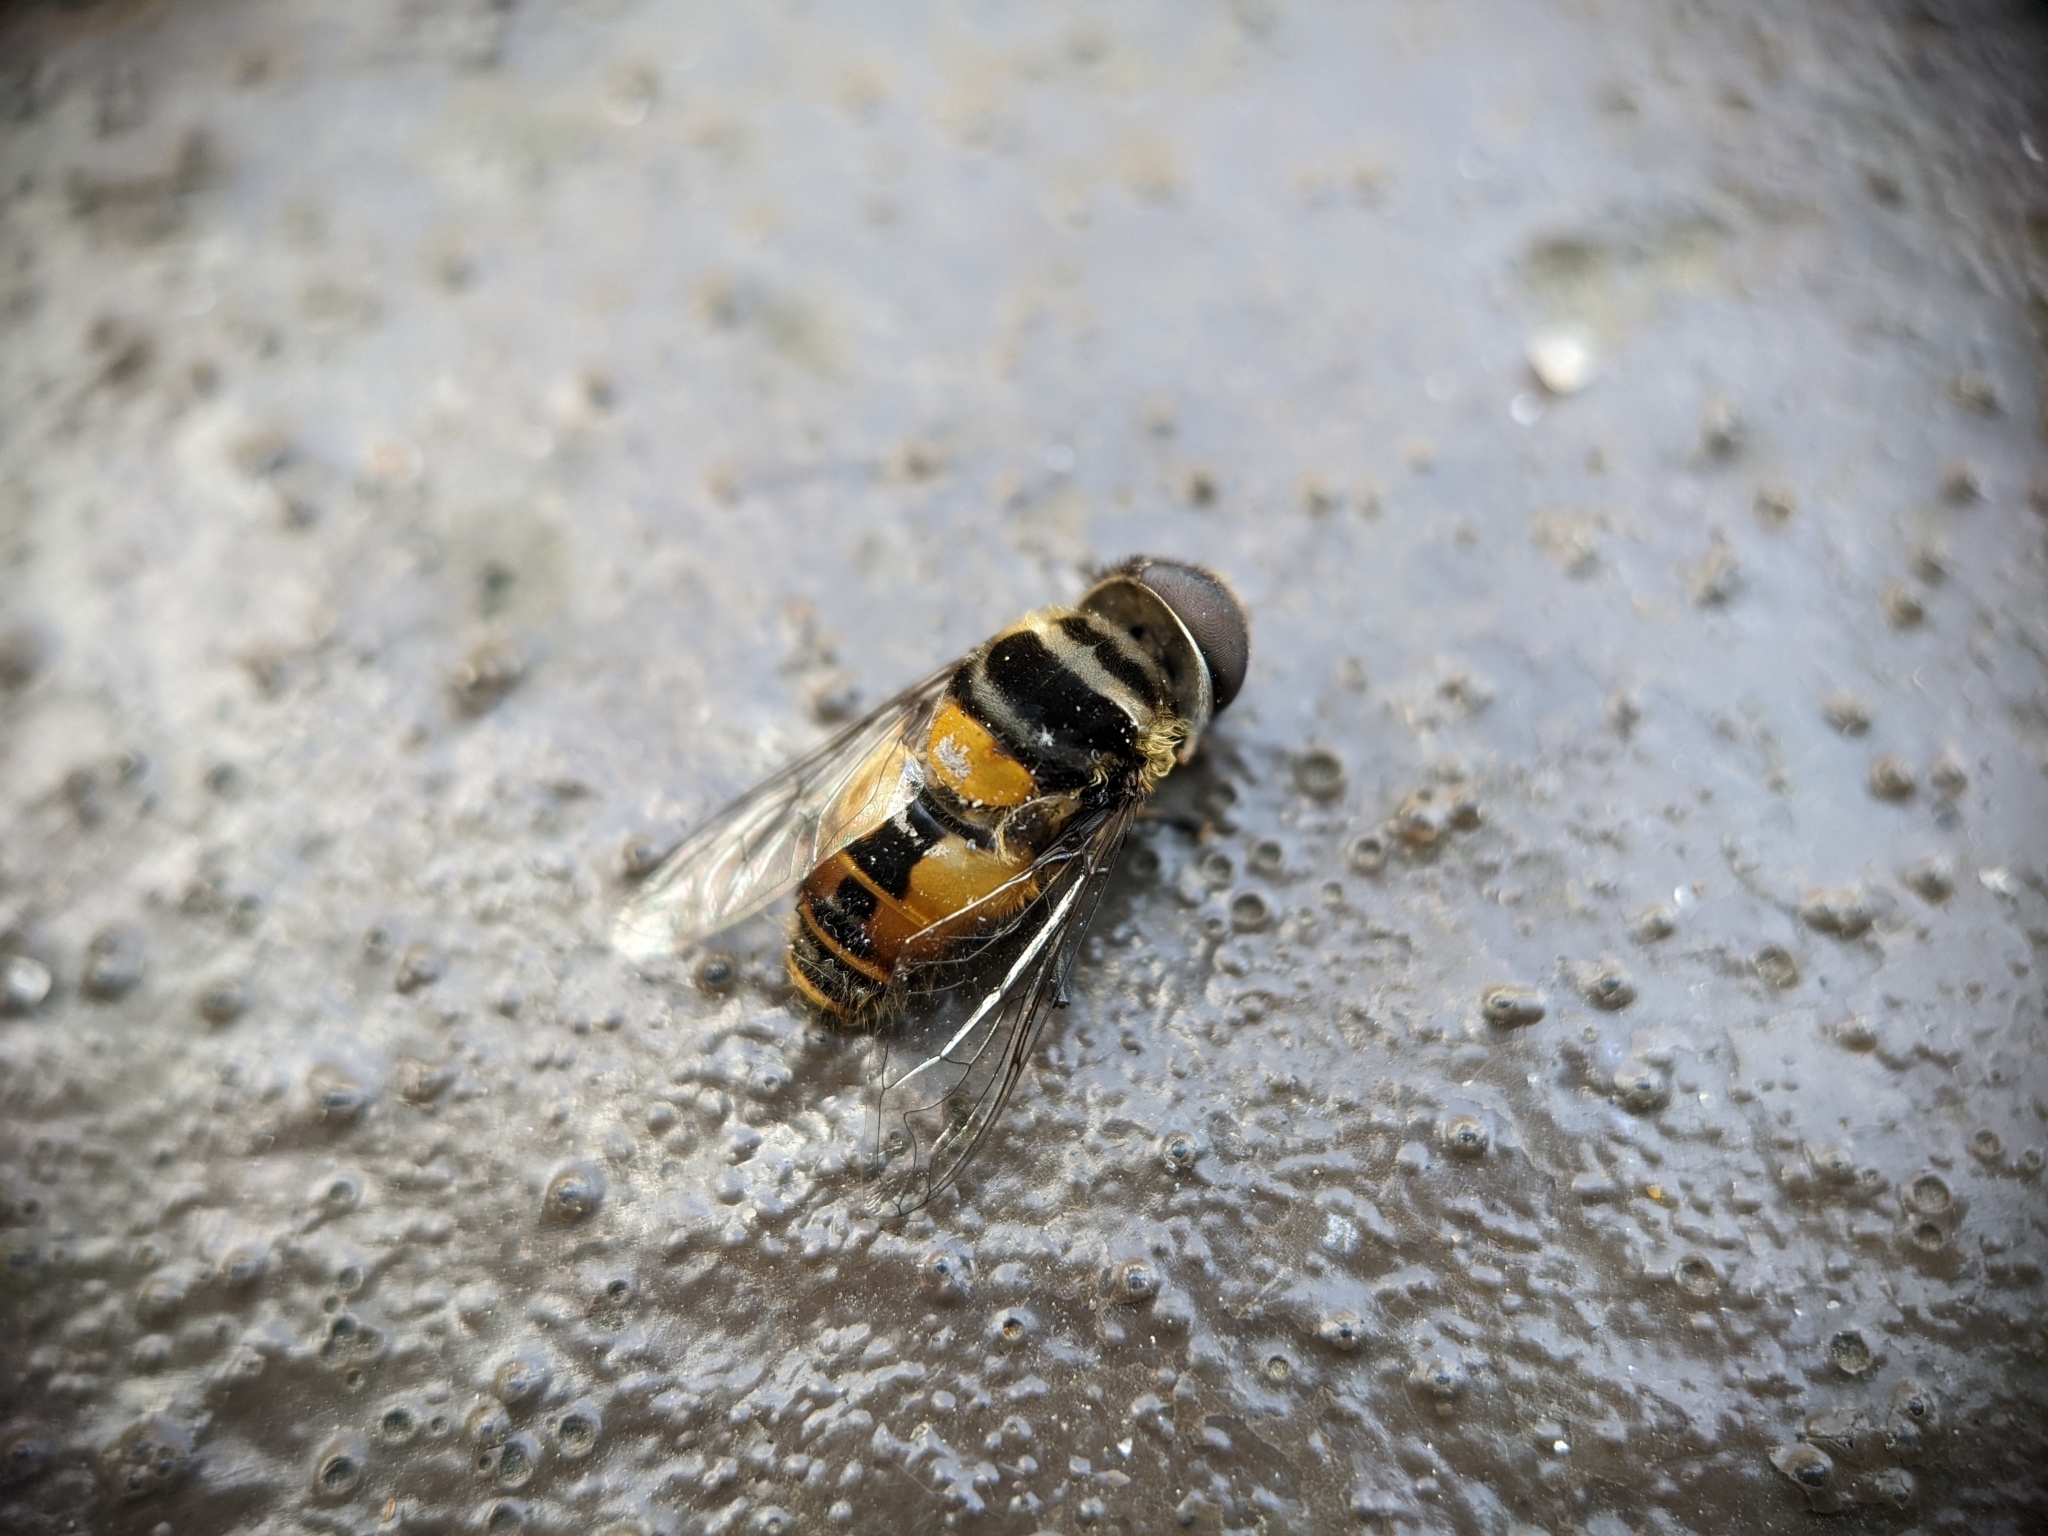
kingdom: Animalia
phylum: Arthropoda
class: Insecta
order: Diptera
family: Syrphidae
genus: Palpada
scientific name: Palpada agrorum
